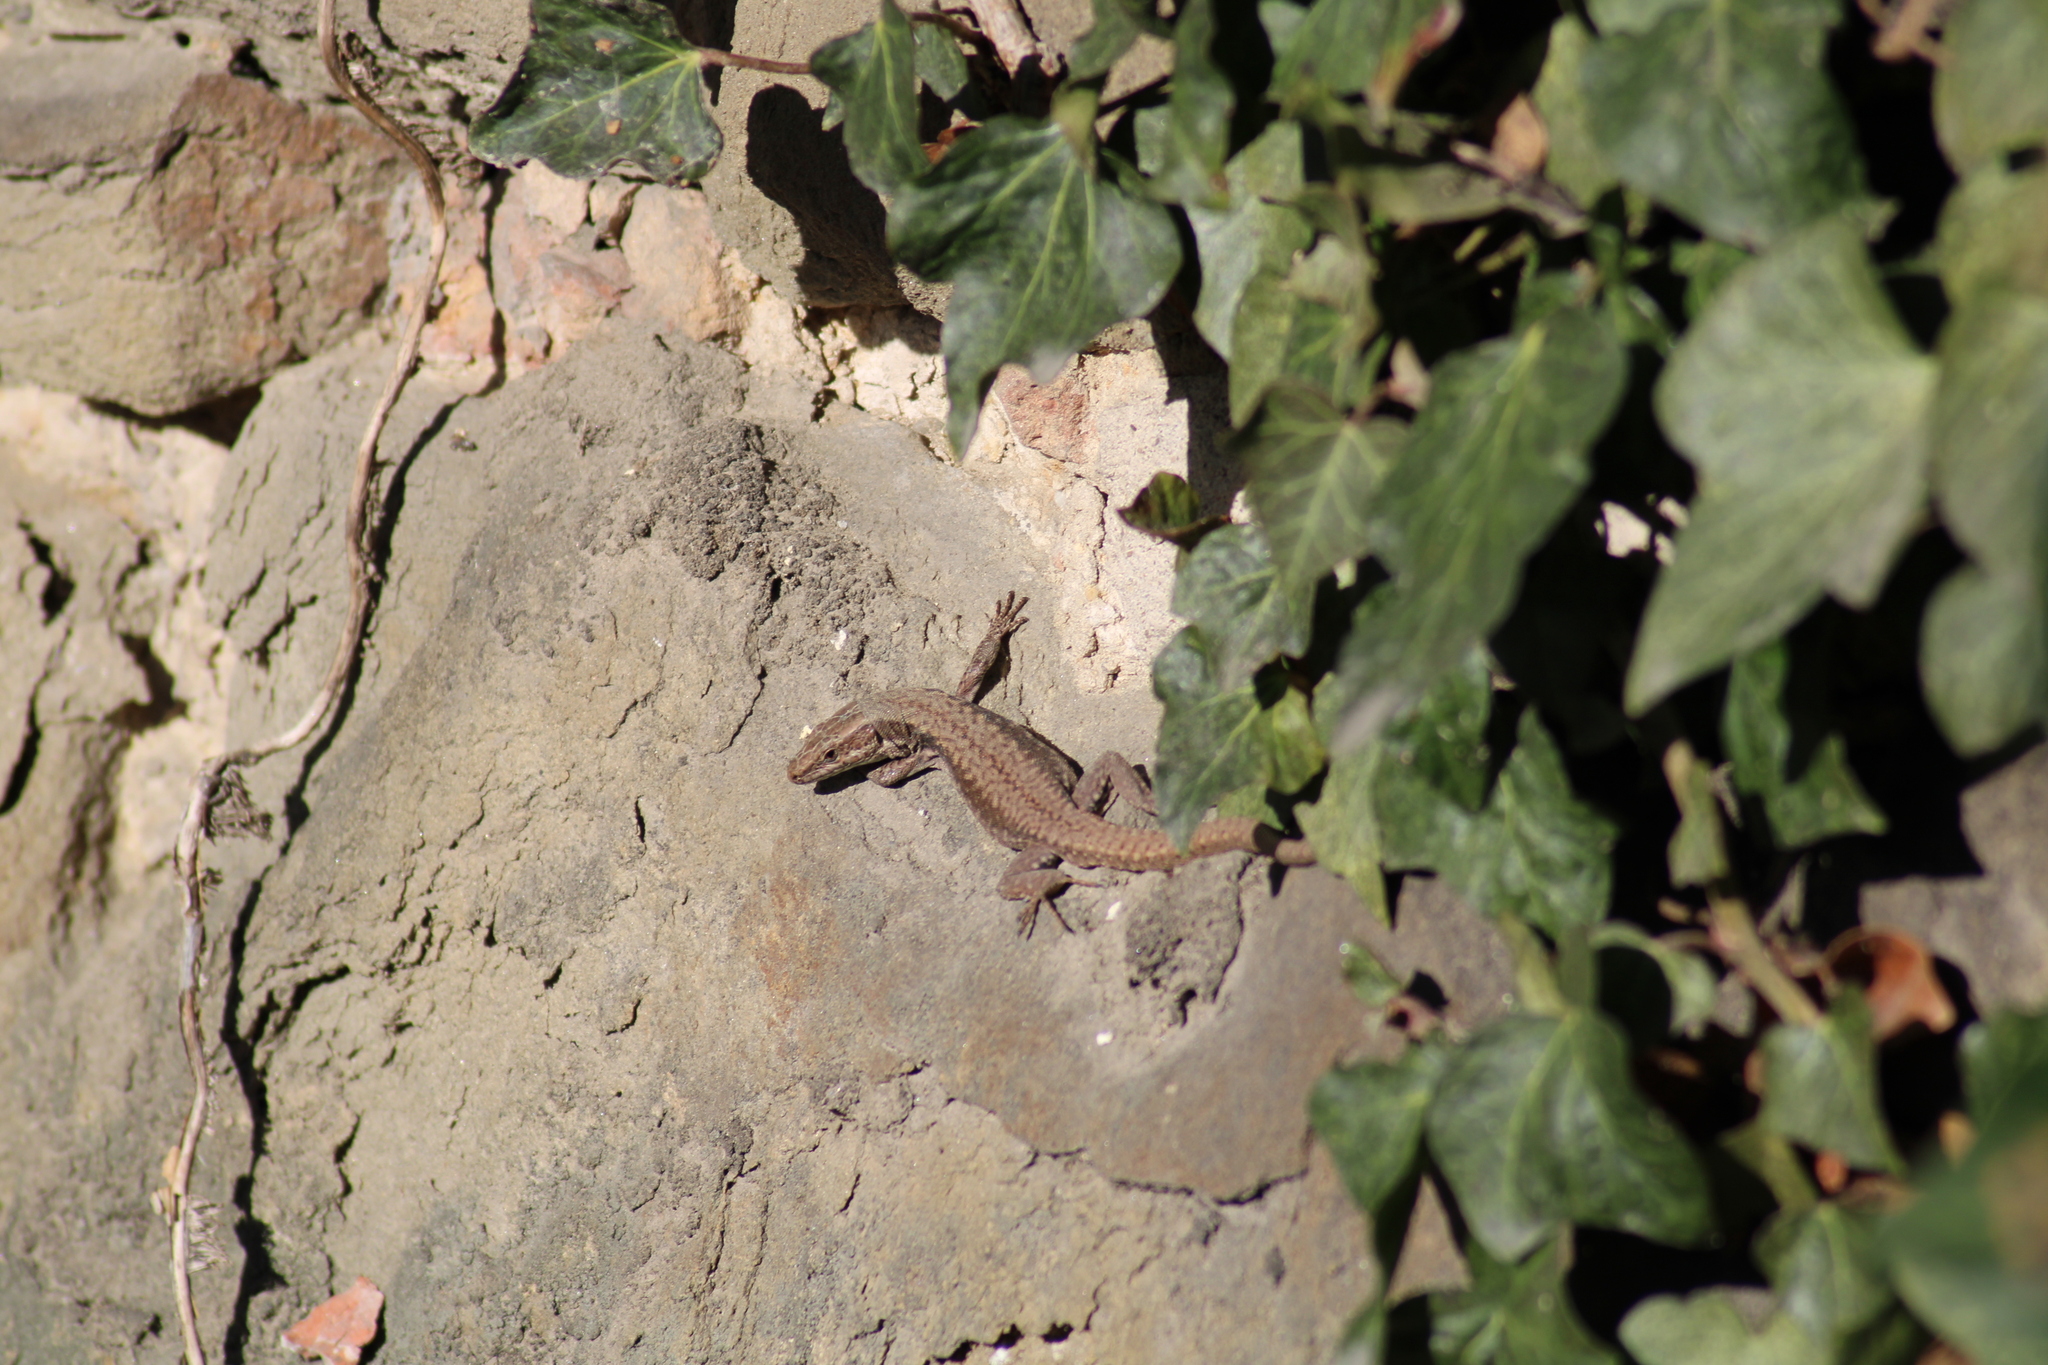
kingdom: Animalia
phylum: Chordata
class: Squamata
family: Lacertidae
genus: Podarcis
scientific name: Podarcis muralis
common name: Common wall lizard
